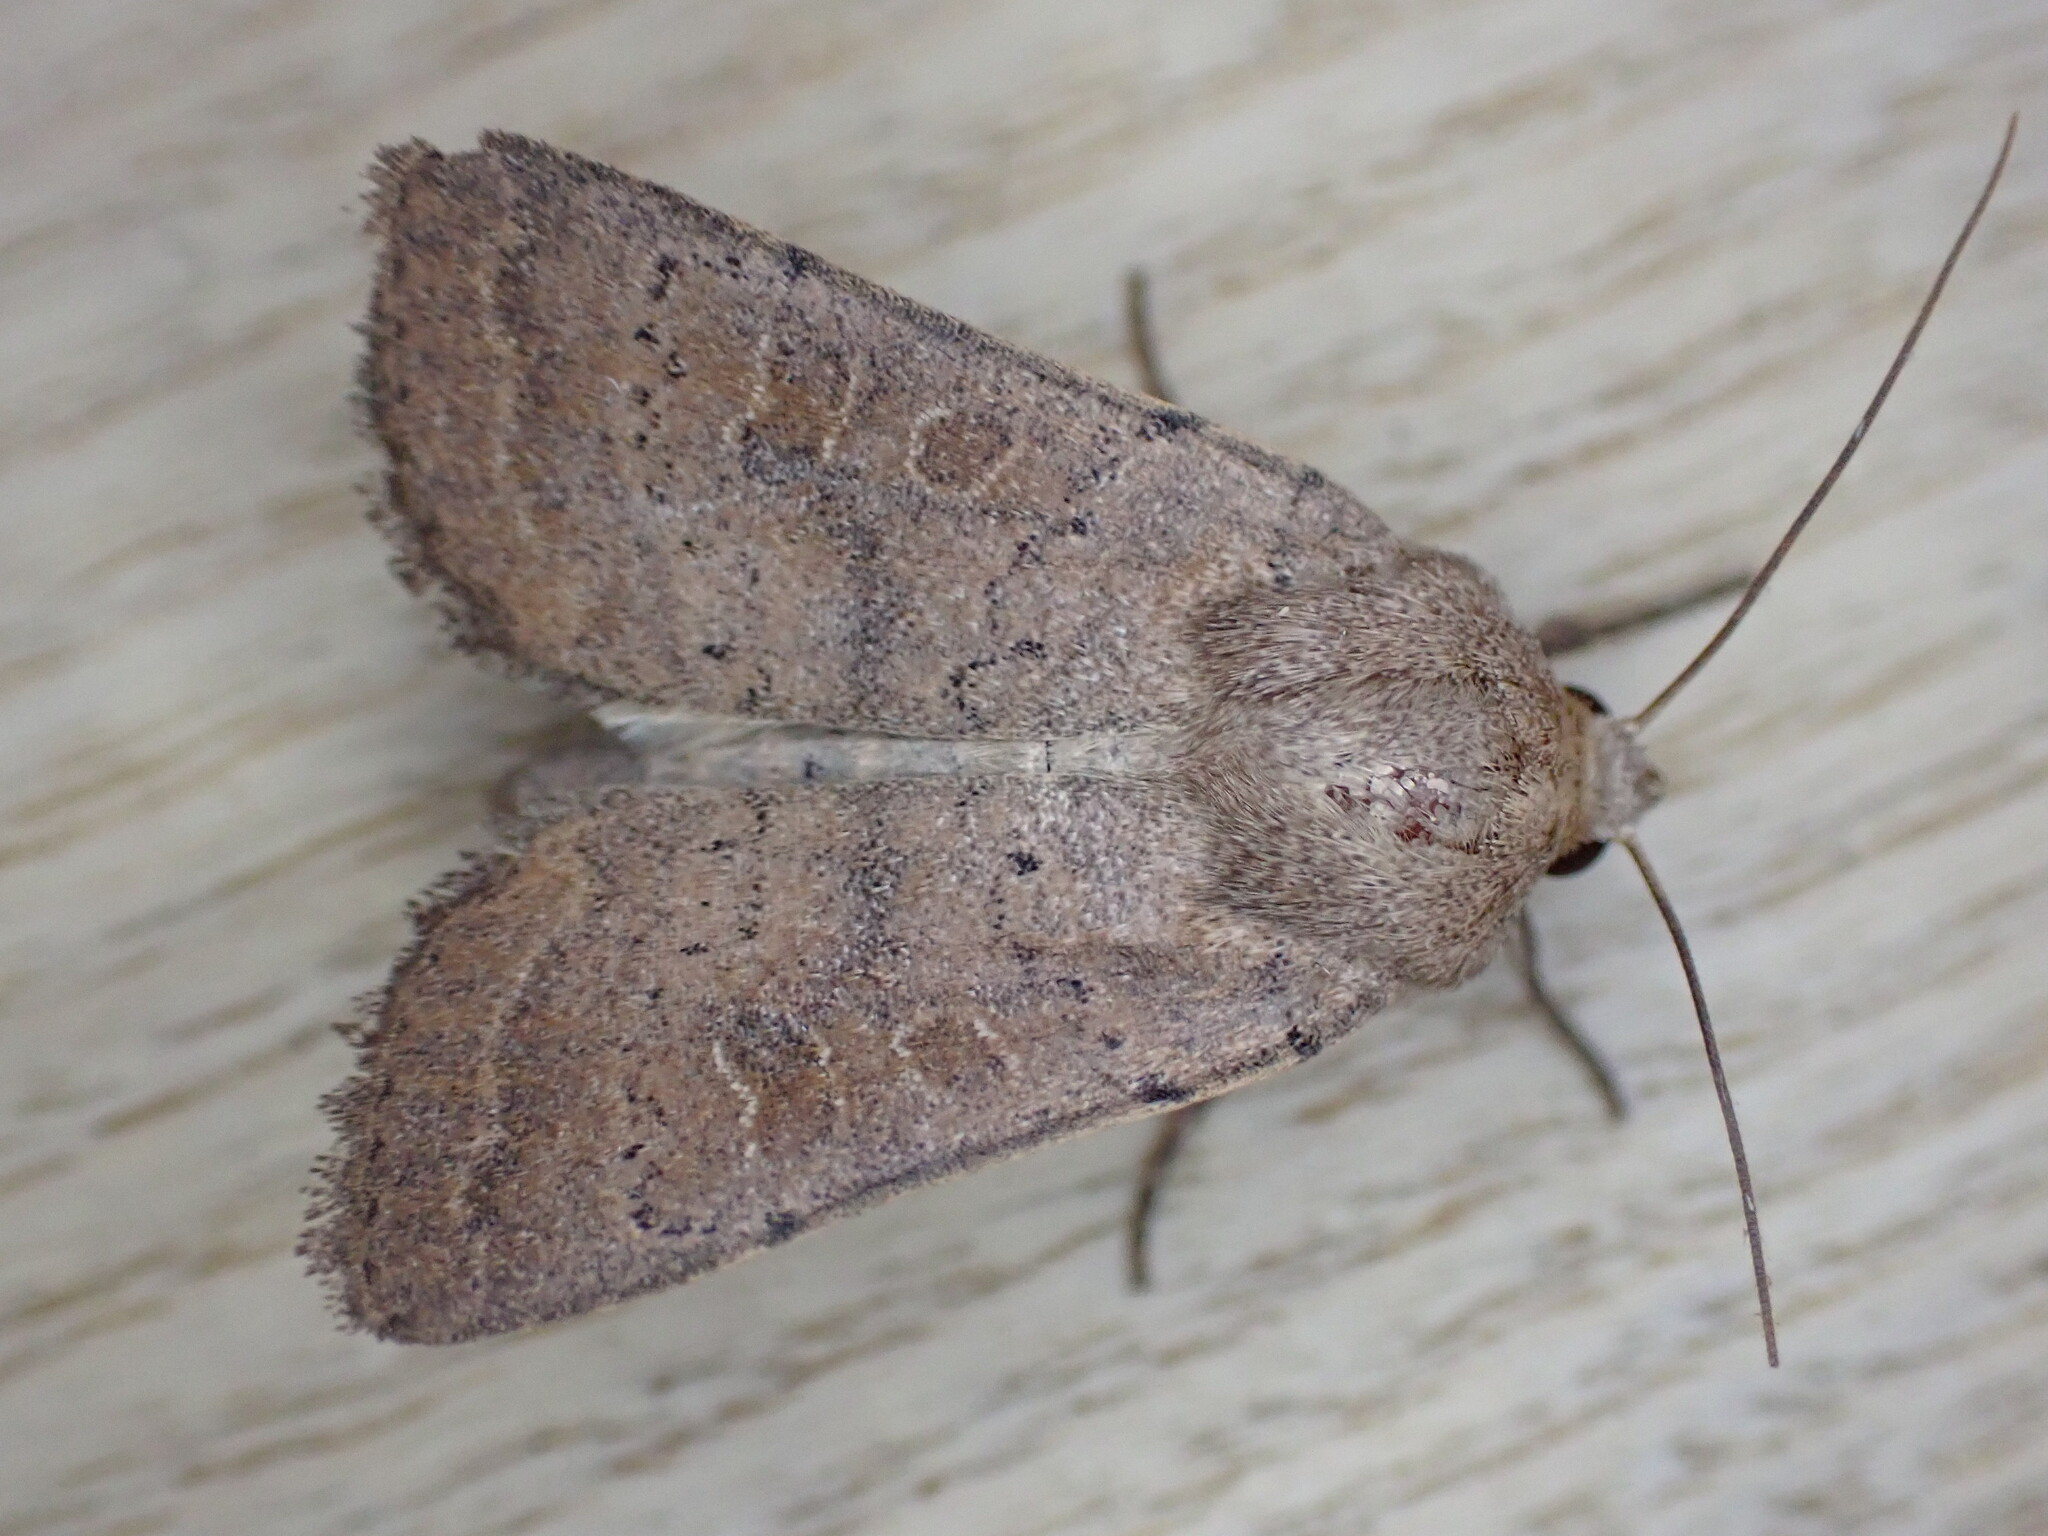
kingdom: Animalia
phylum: Arthropoda
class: Insecta
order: Lepidoptera
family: Noctuidae
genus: Hoplodrina
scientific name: Hoplodrina blanda
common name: Rustic
